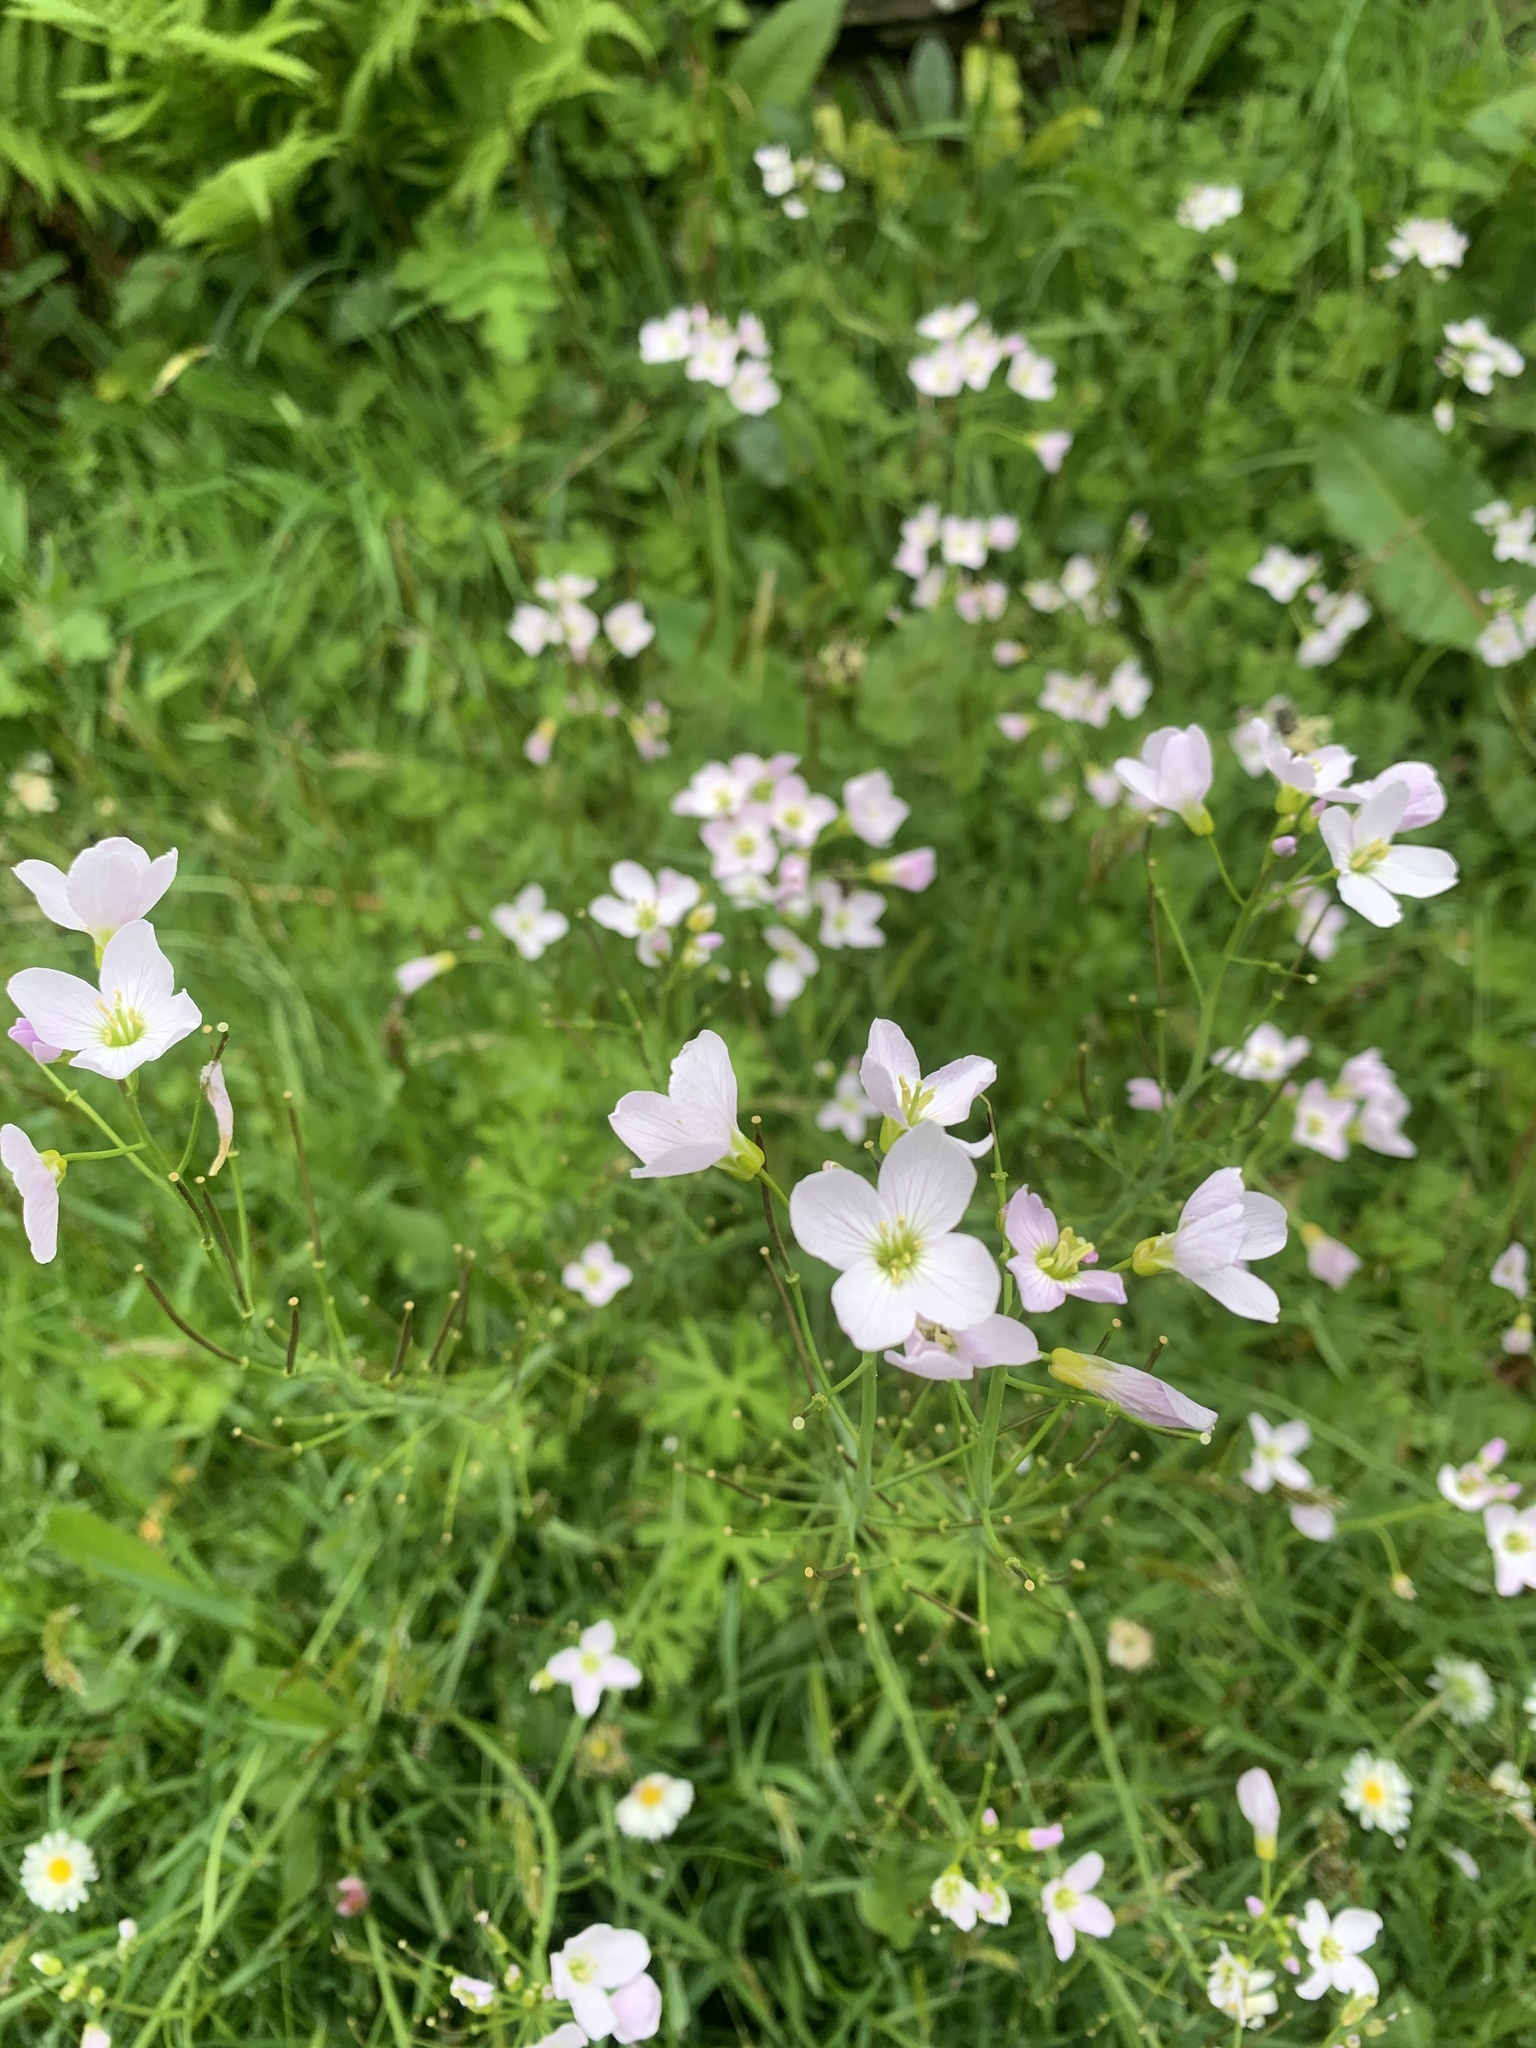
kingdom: Plantae
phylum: Tracheophyta
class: Magnoliopsida
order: Brassicales
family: Brassicaceae
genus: Cardamine
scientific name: Cardamine pratensis
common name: Cuckoo flower
